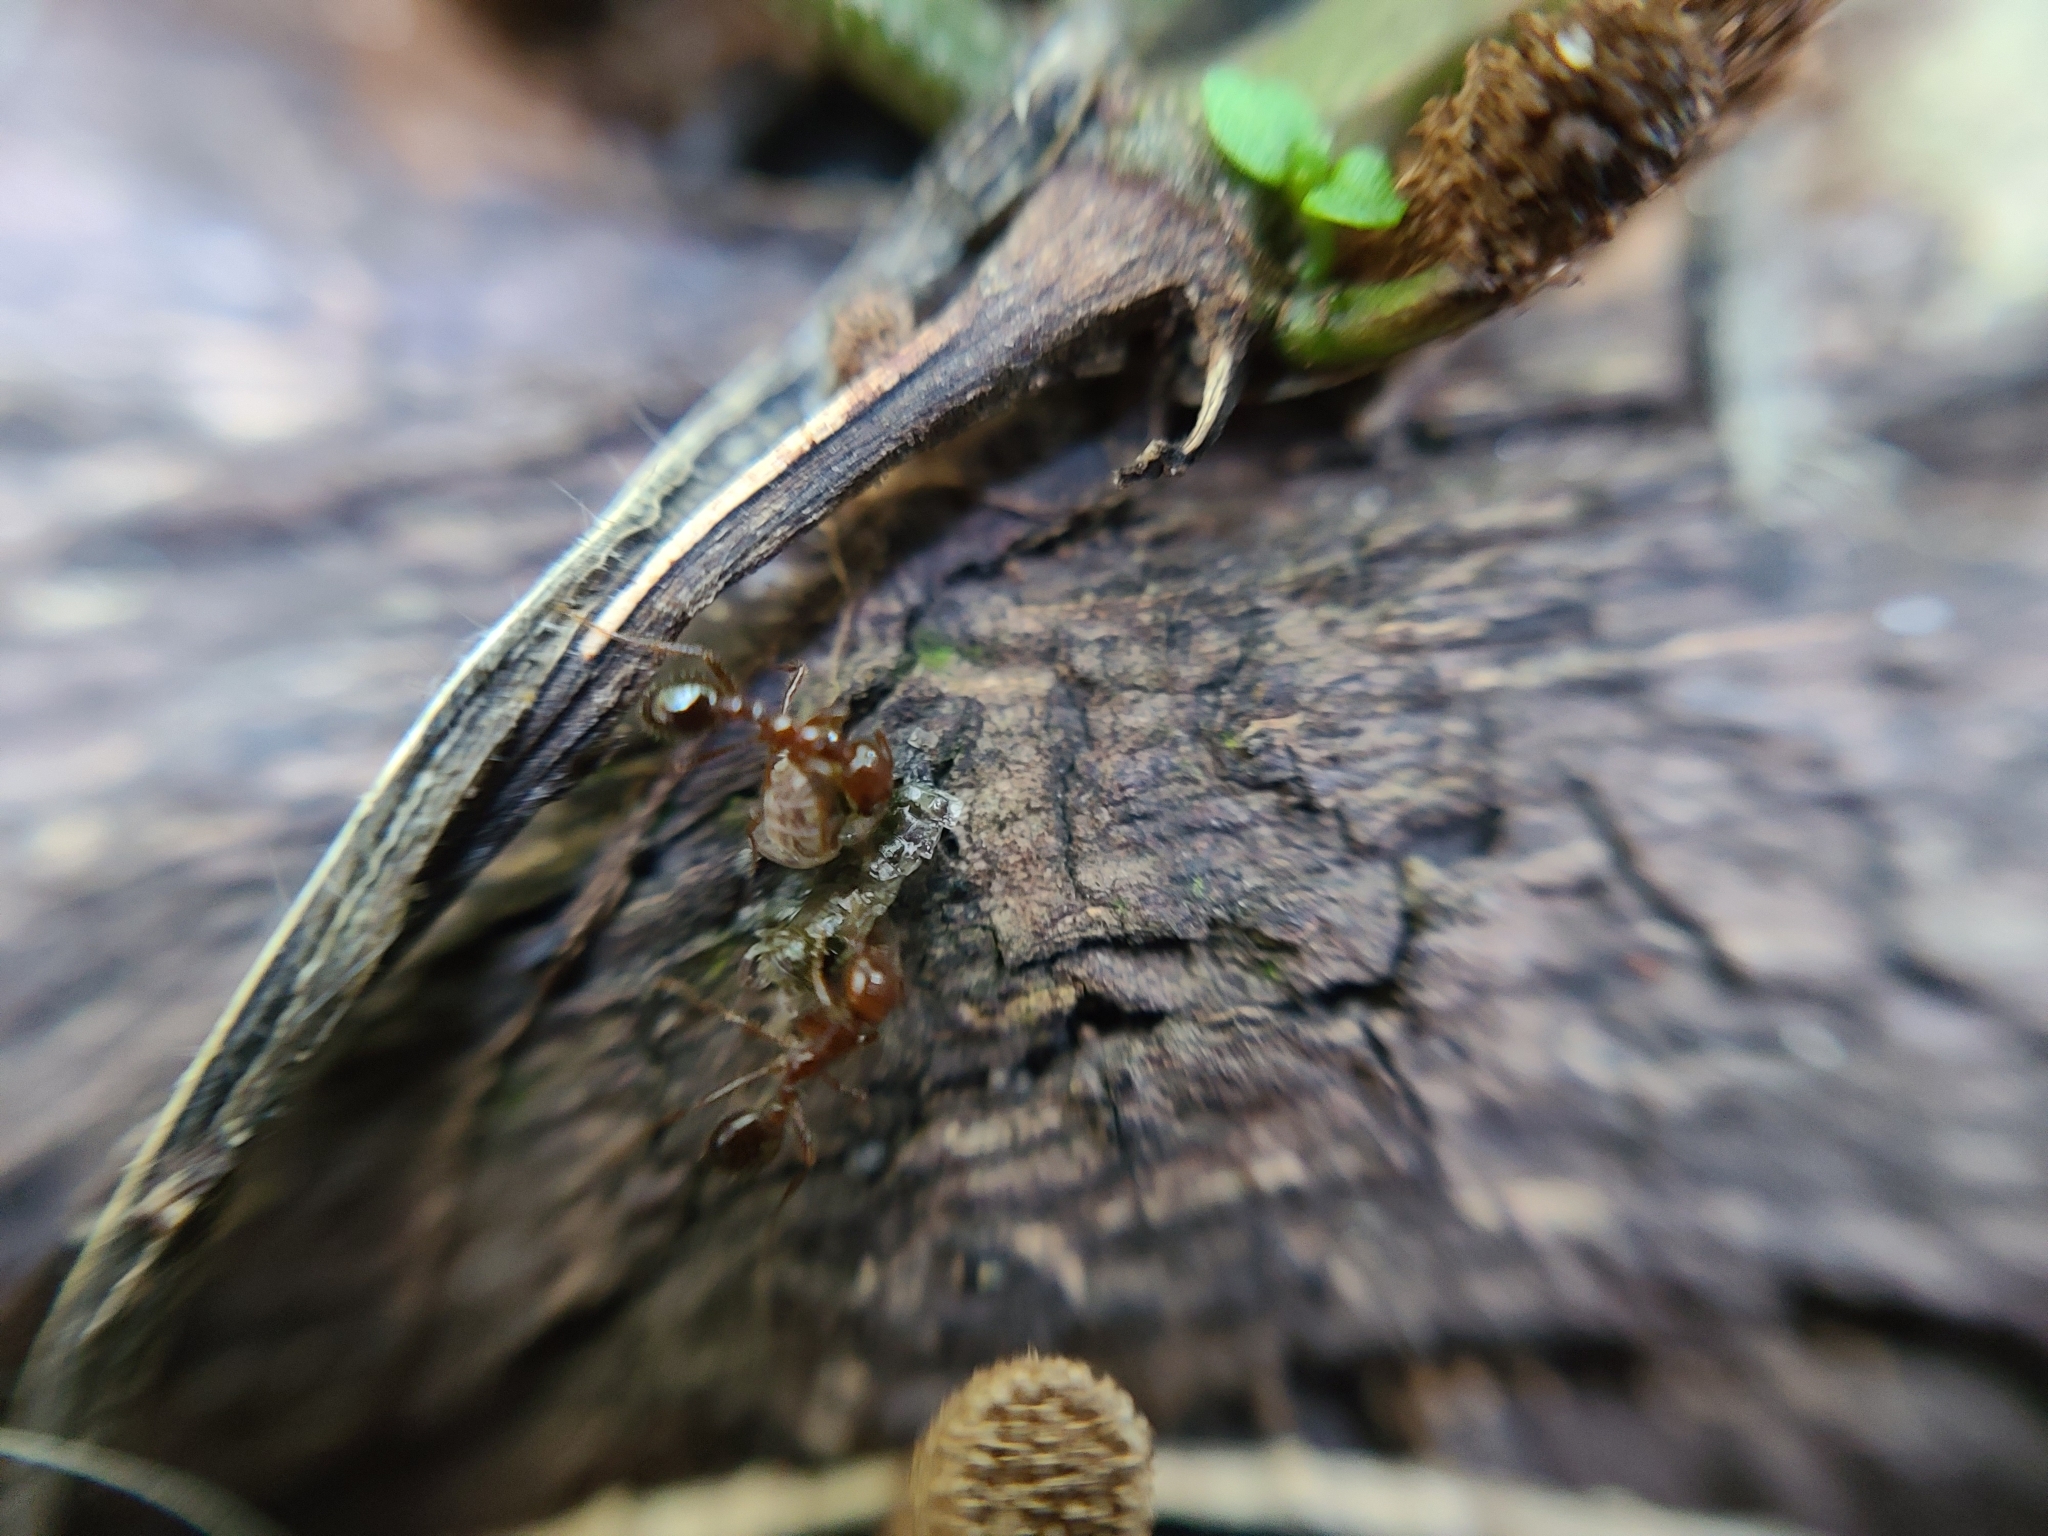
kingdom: Animalia
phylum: Arthropoda
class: Insecta
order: Hymenoptera
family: Formicidae
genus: Solenopsis
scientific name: Solenopsis invicta
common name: Red imported fire ant
